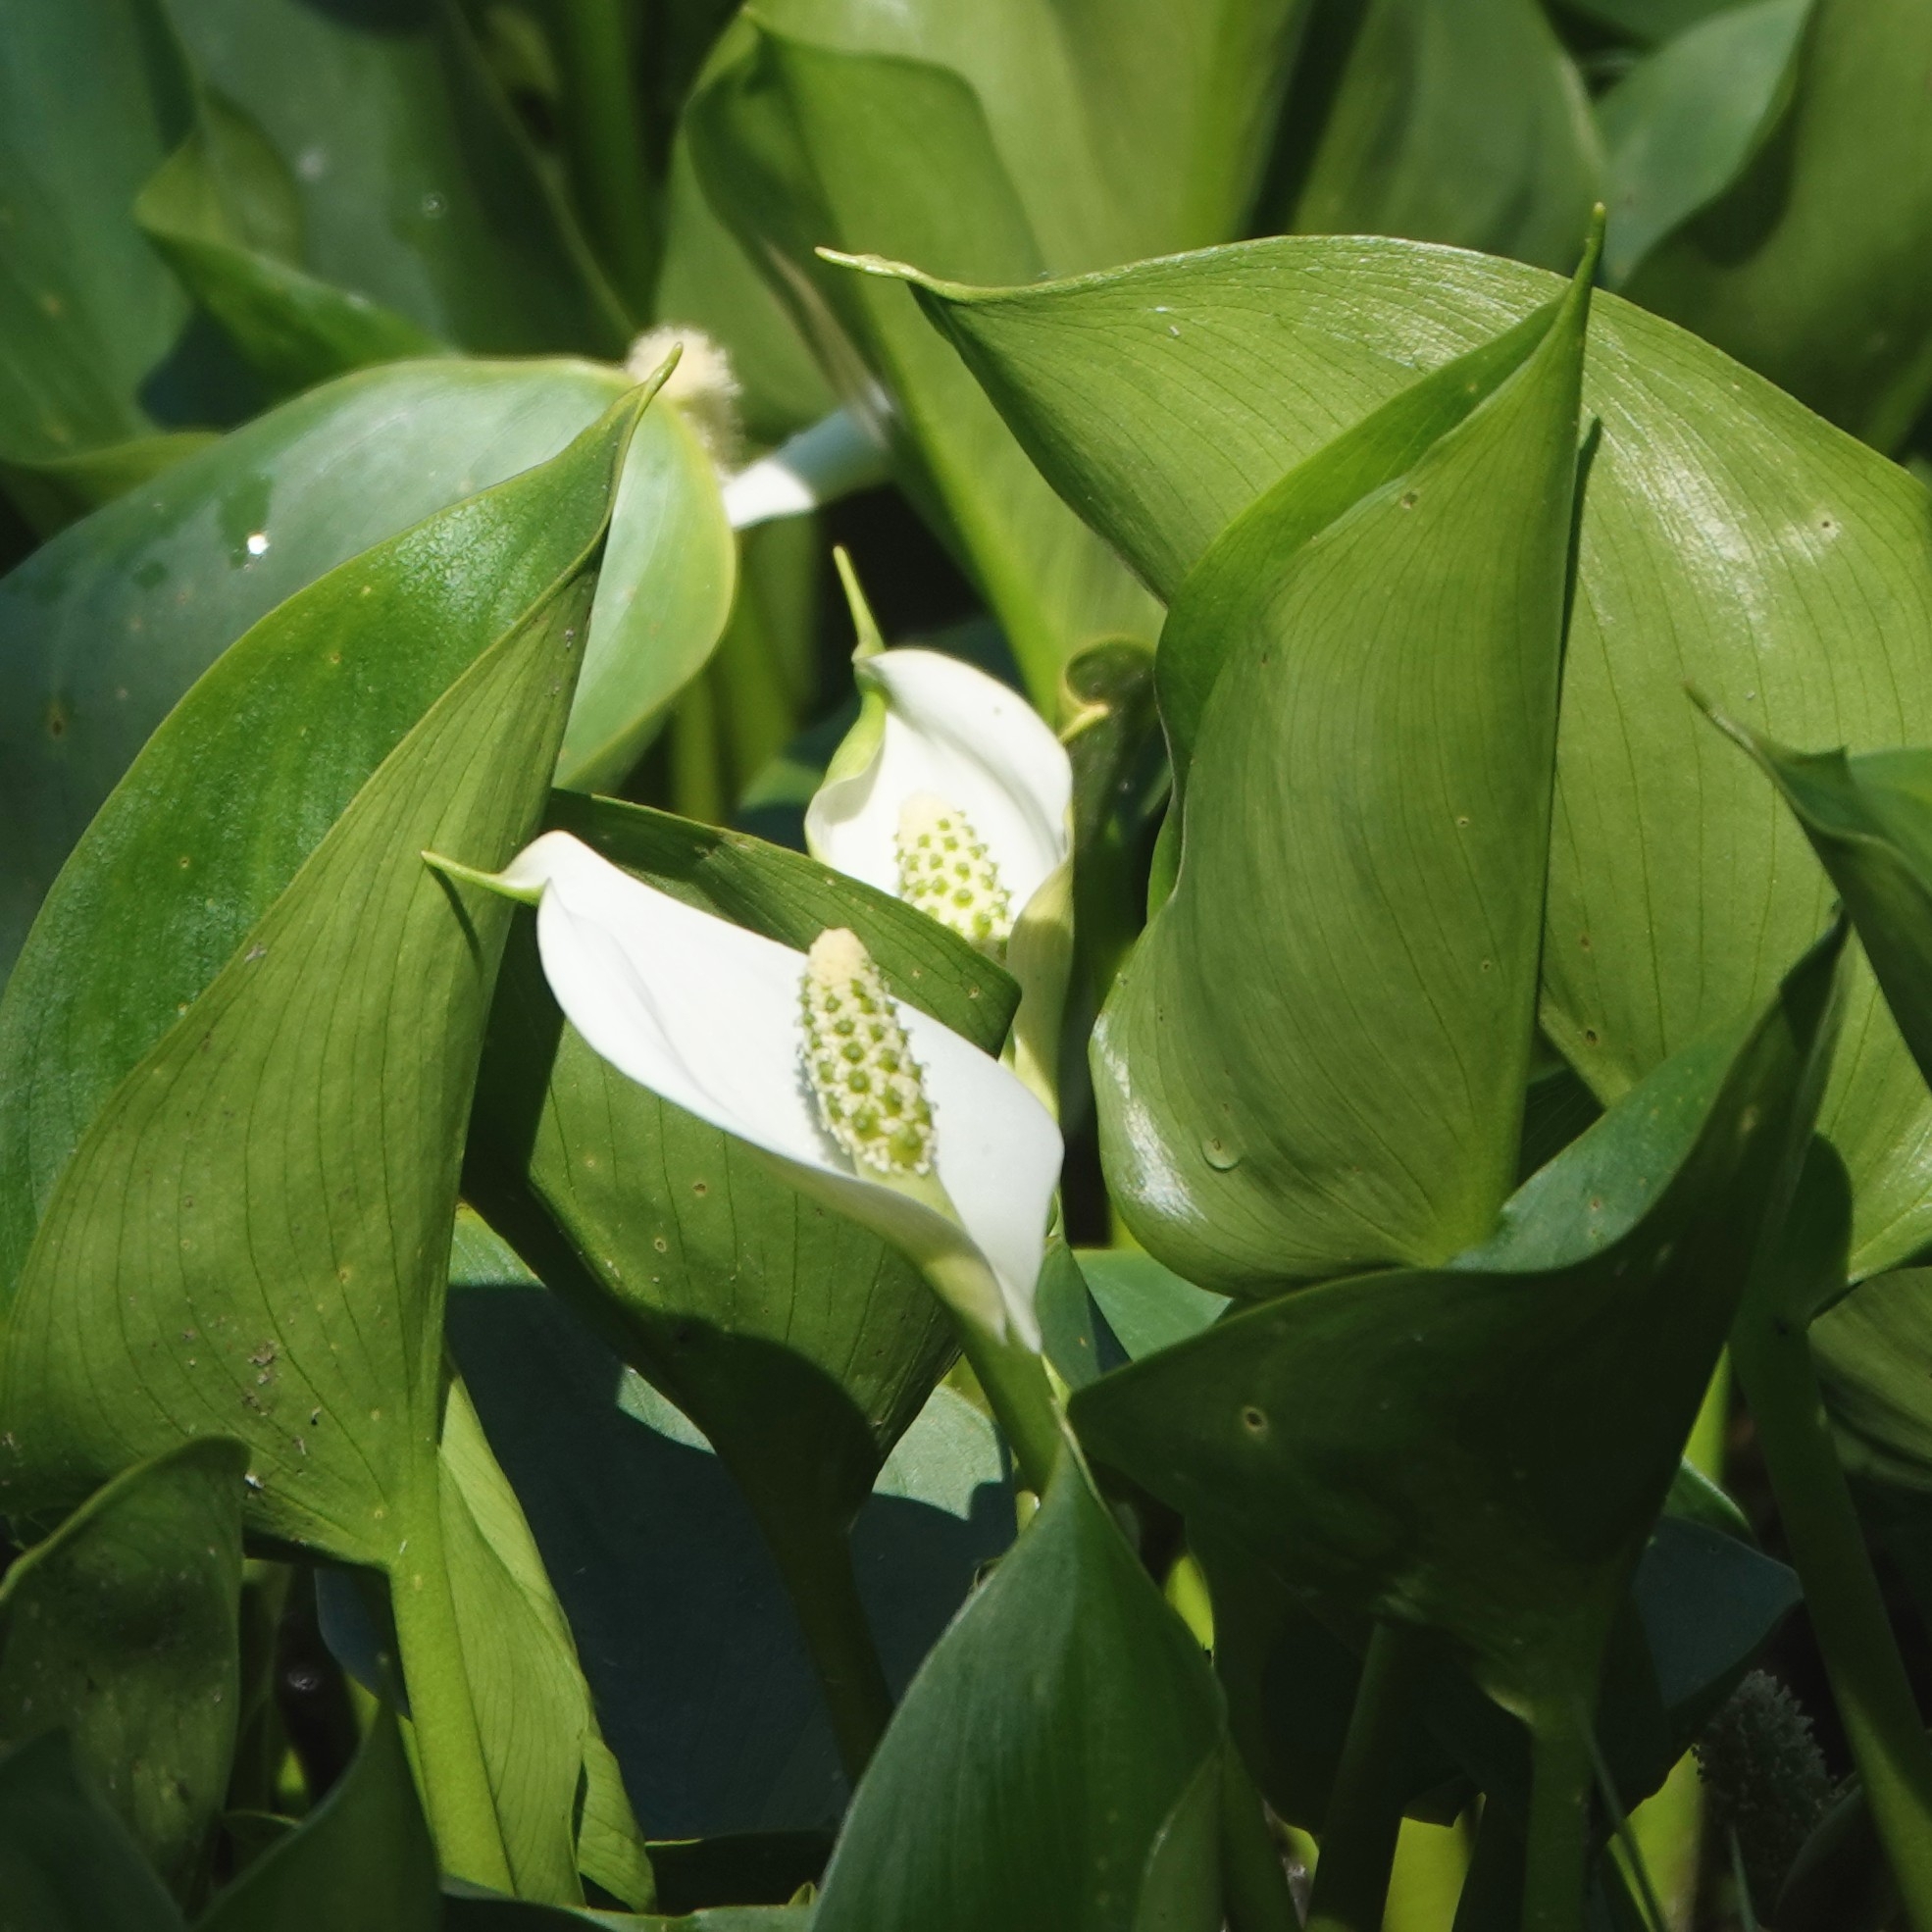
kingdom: Plantae
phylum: Tracheophyta
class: Liliopsida
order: Alismatales
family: Araceae
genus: Calla
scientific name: Calla palustris
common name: Bog arum
